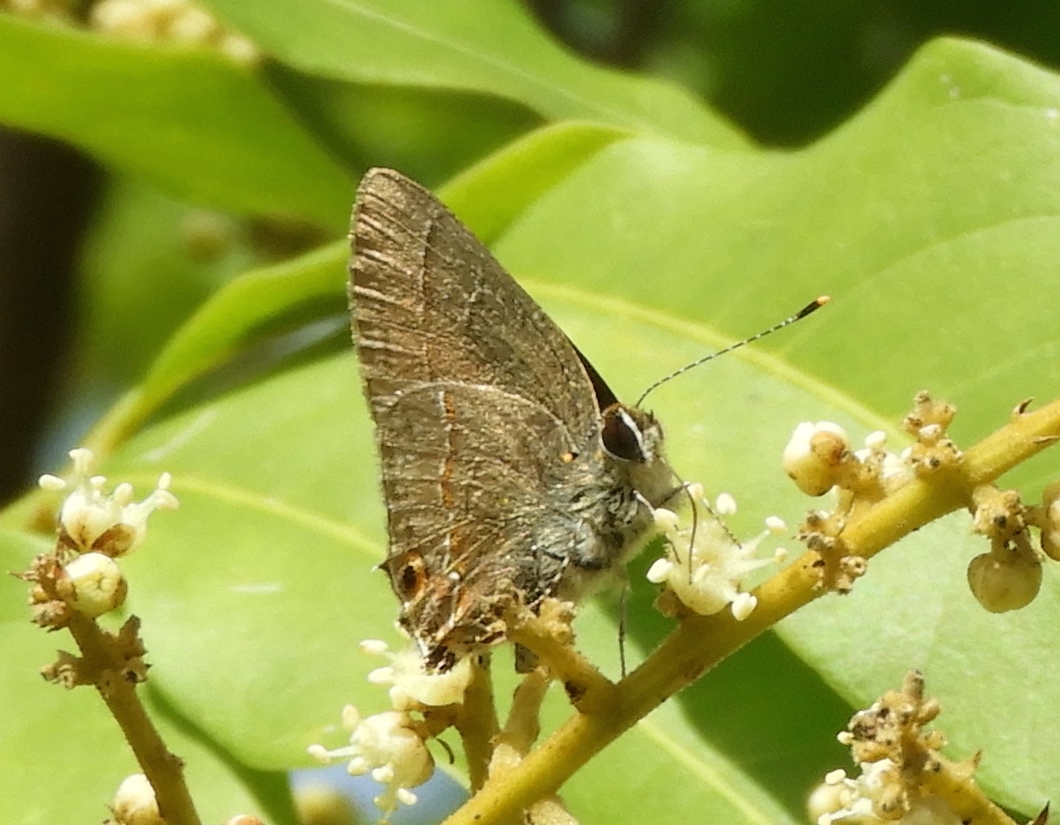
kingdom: Animalia
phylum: Arthropoda
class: Insecta
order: Lepidoptera
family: Lycaenidae
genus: Electrostrymon
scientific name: Electrostrymon
